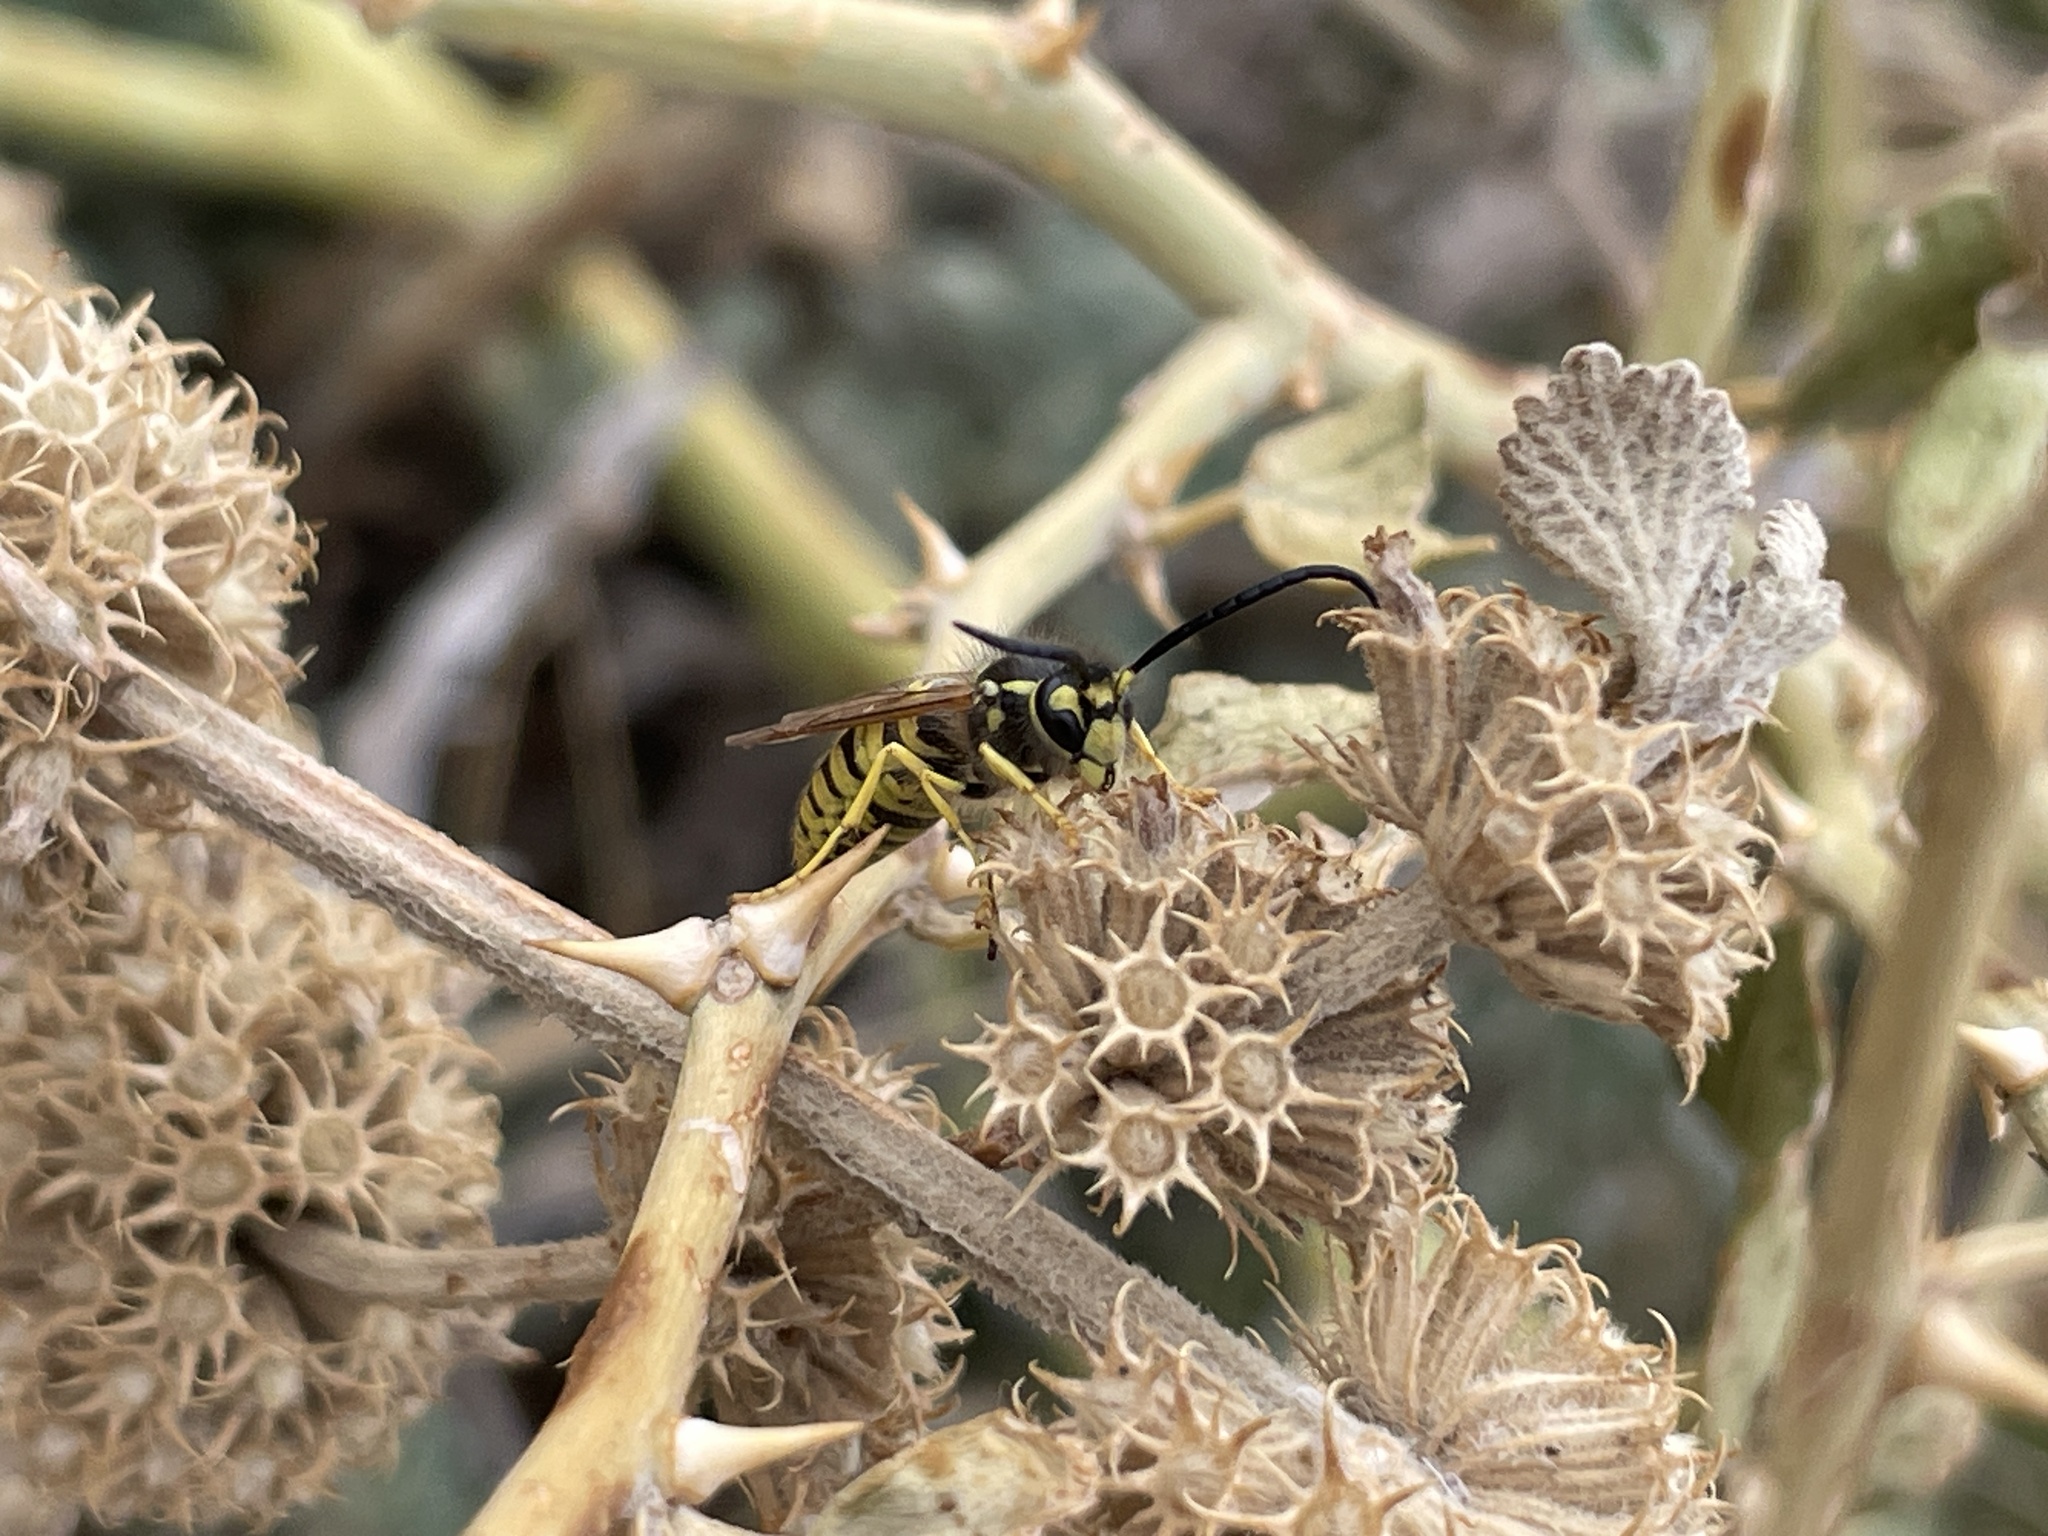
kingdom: Animalia
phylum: Arthropoda
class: Insecta
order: Hymenoptera
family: Vespidae
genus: Vespula
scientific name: Vespula germanica
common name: German wasp
